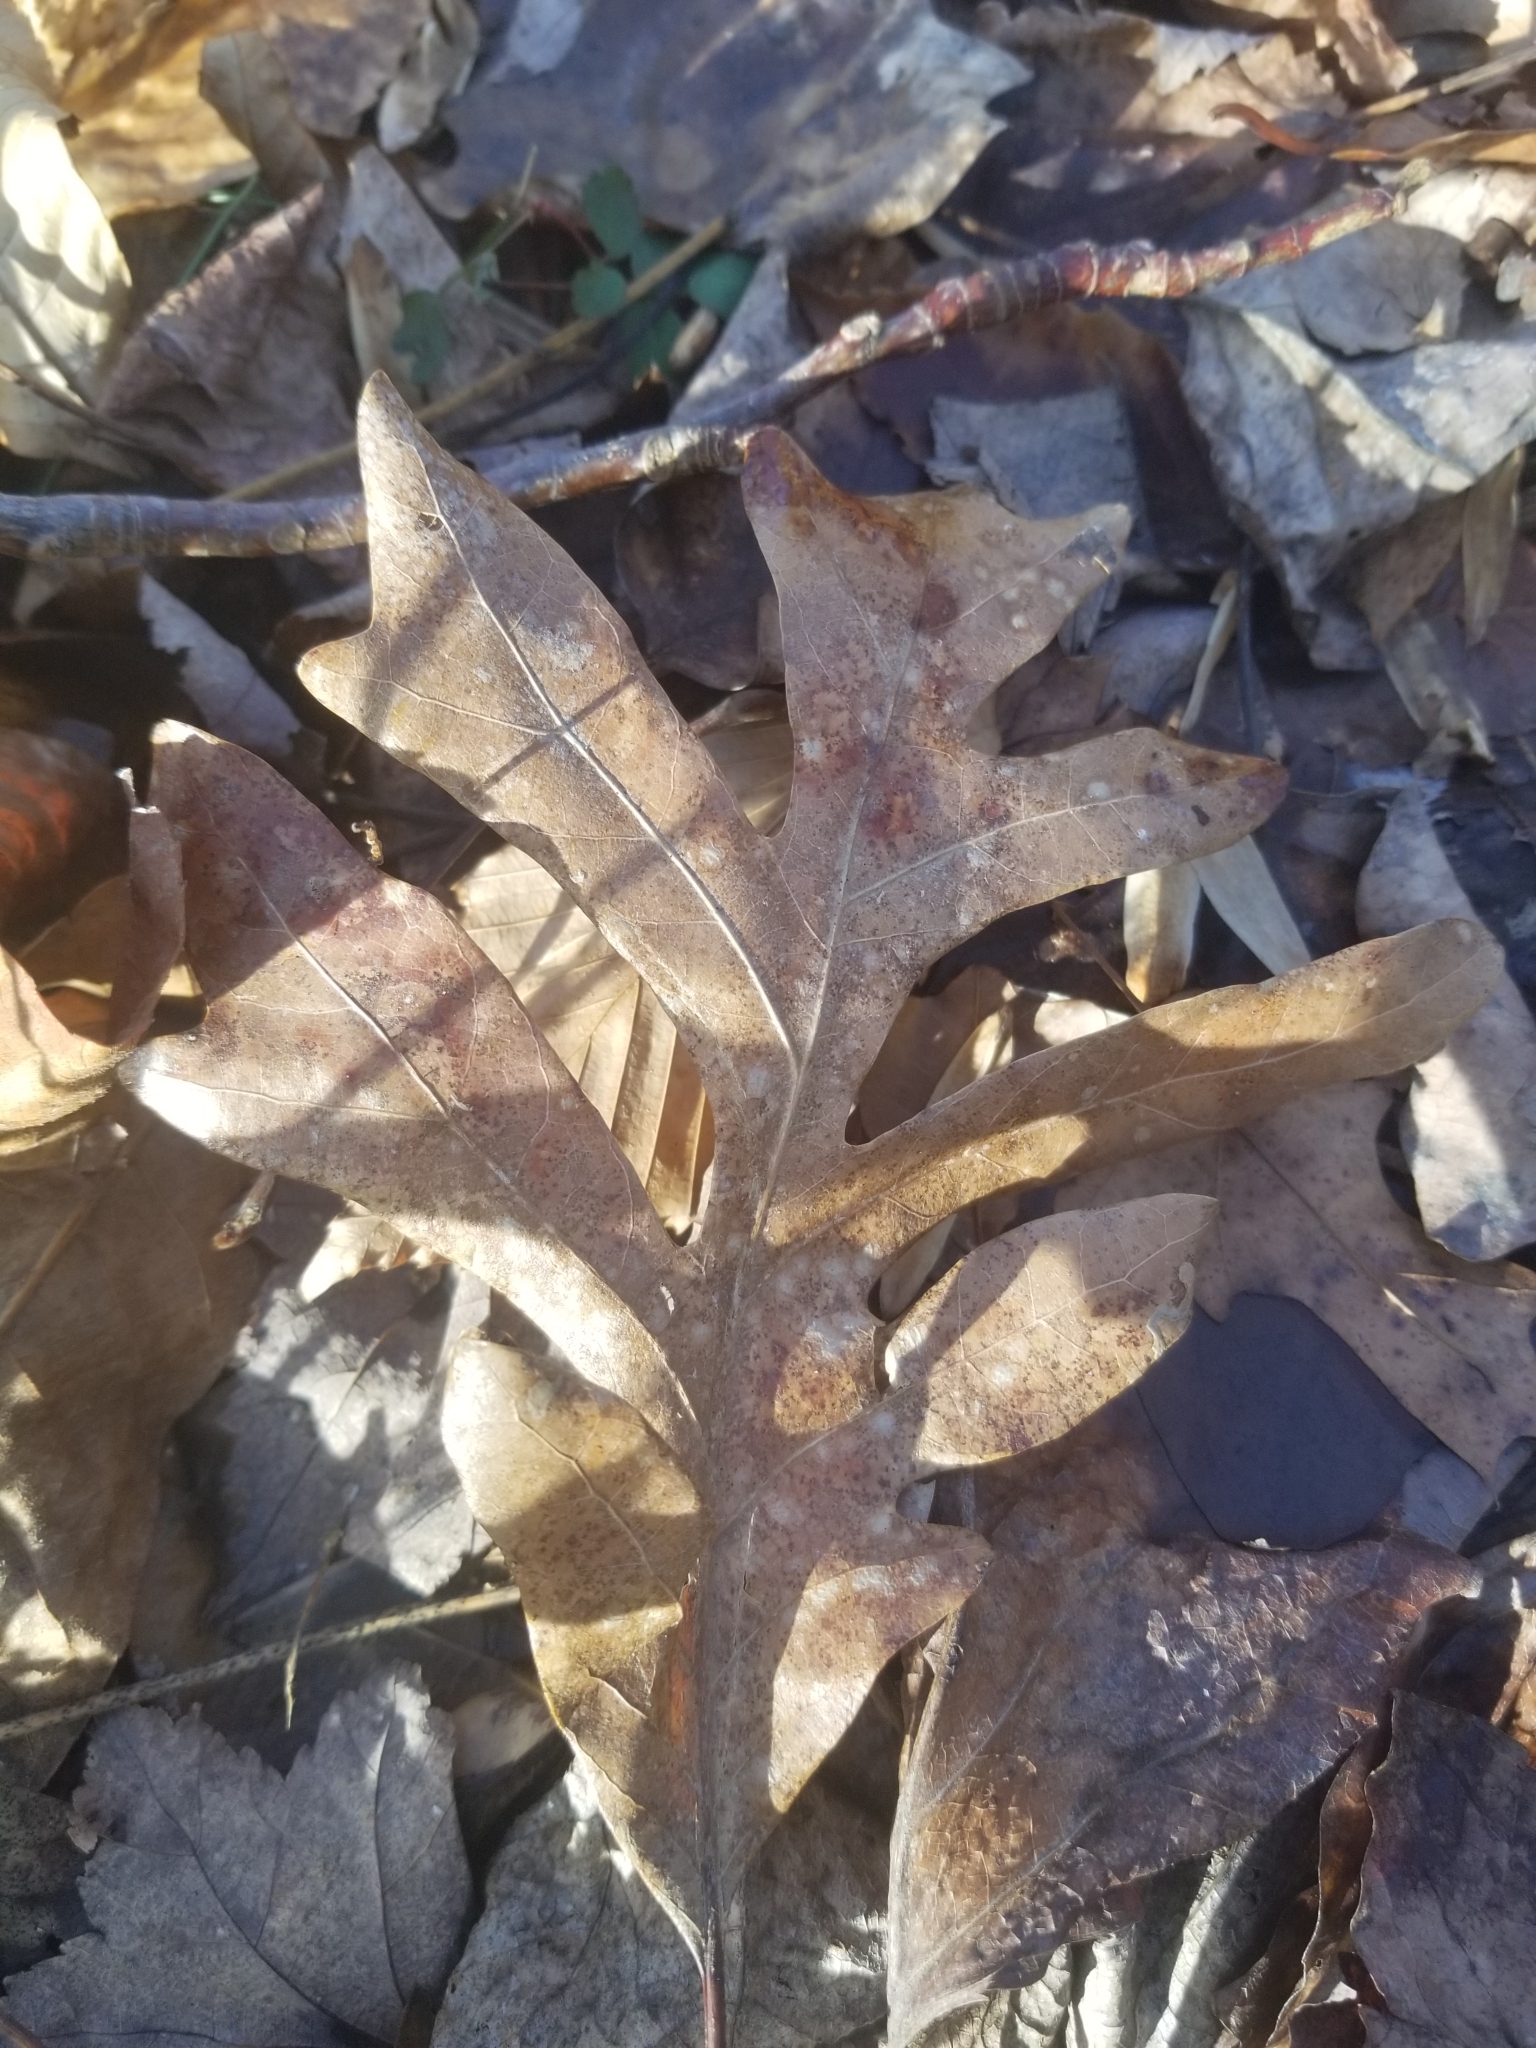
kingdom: Plantae
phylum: Tracheophyta
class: Magnoliopsida
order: Fagales
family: Fagaceae
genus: Quercus
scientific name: Quercus alba
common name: White oak
